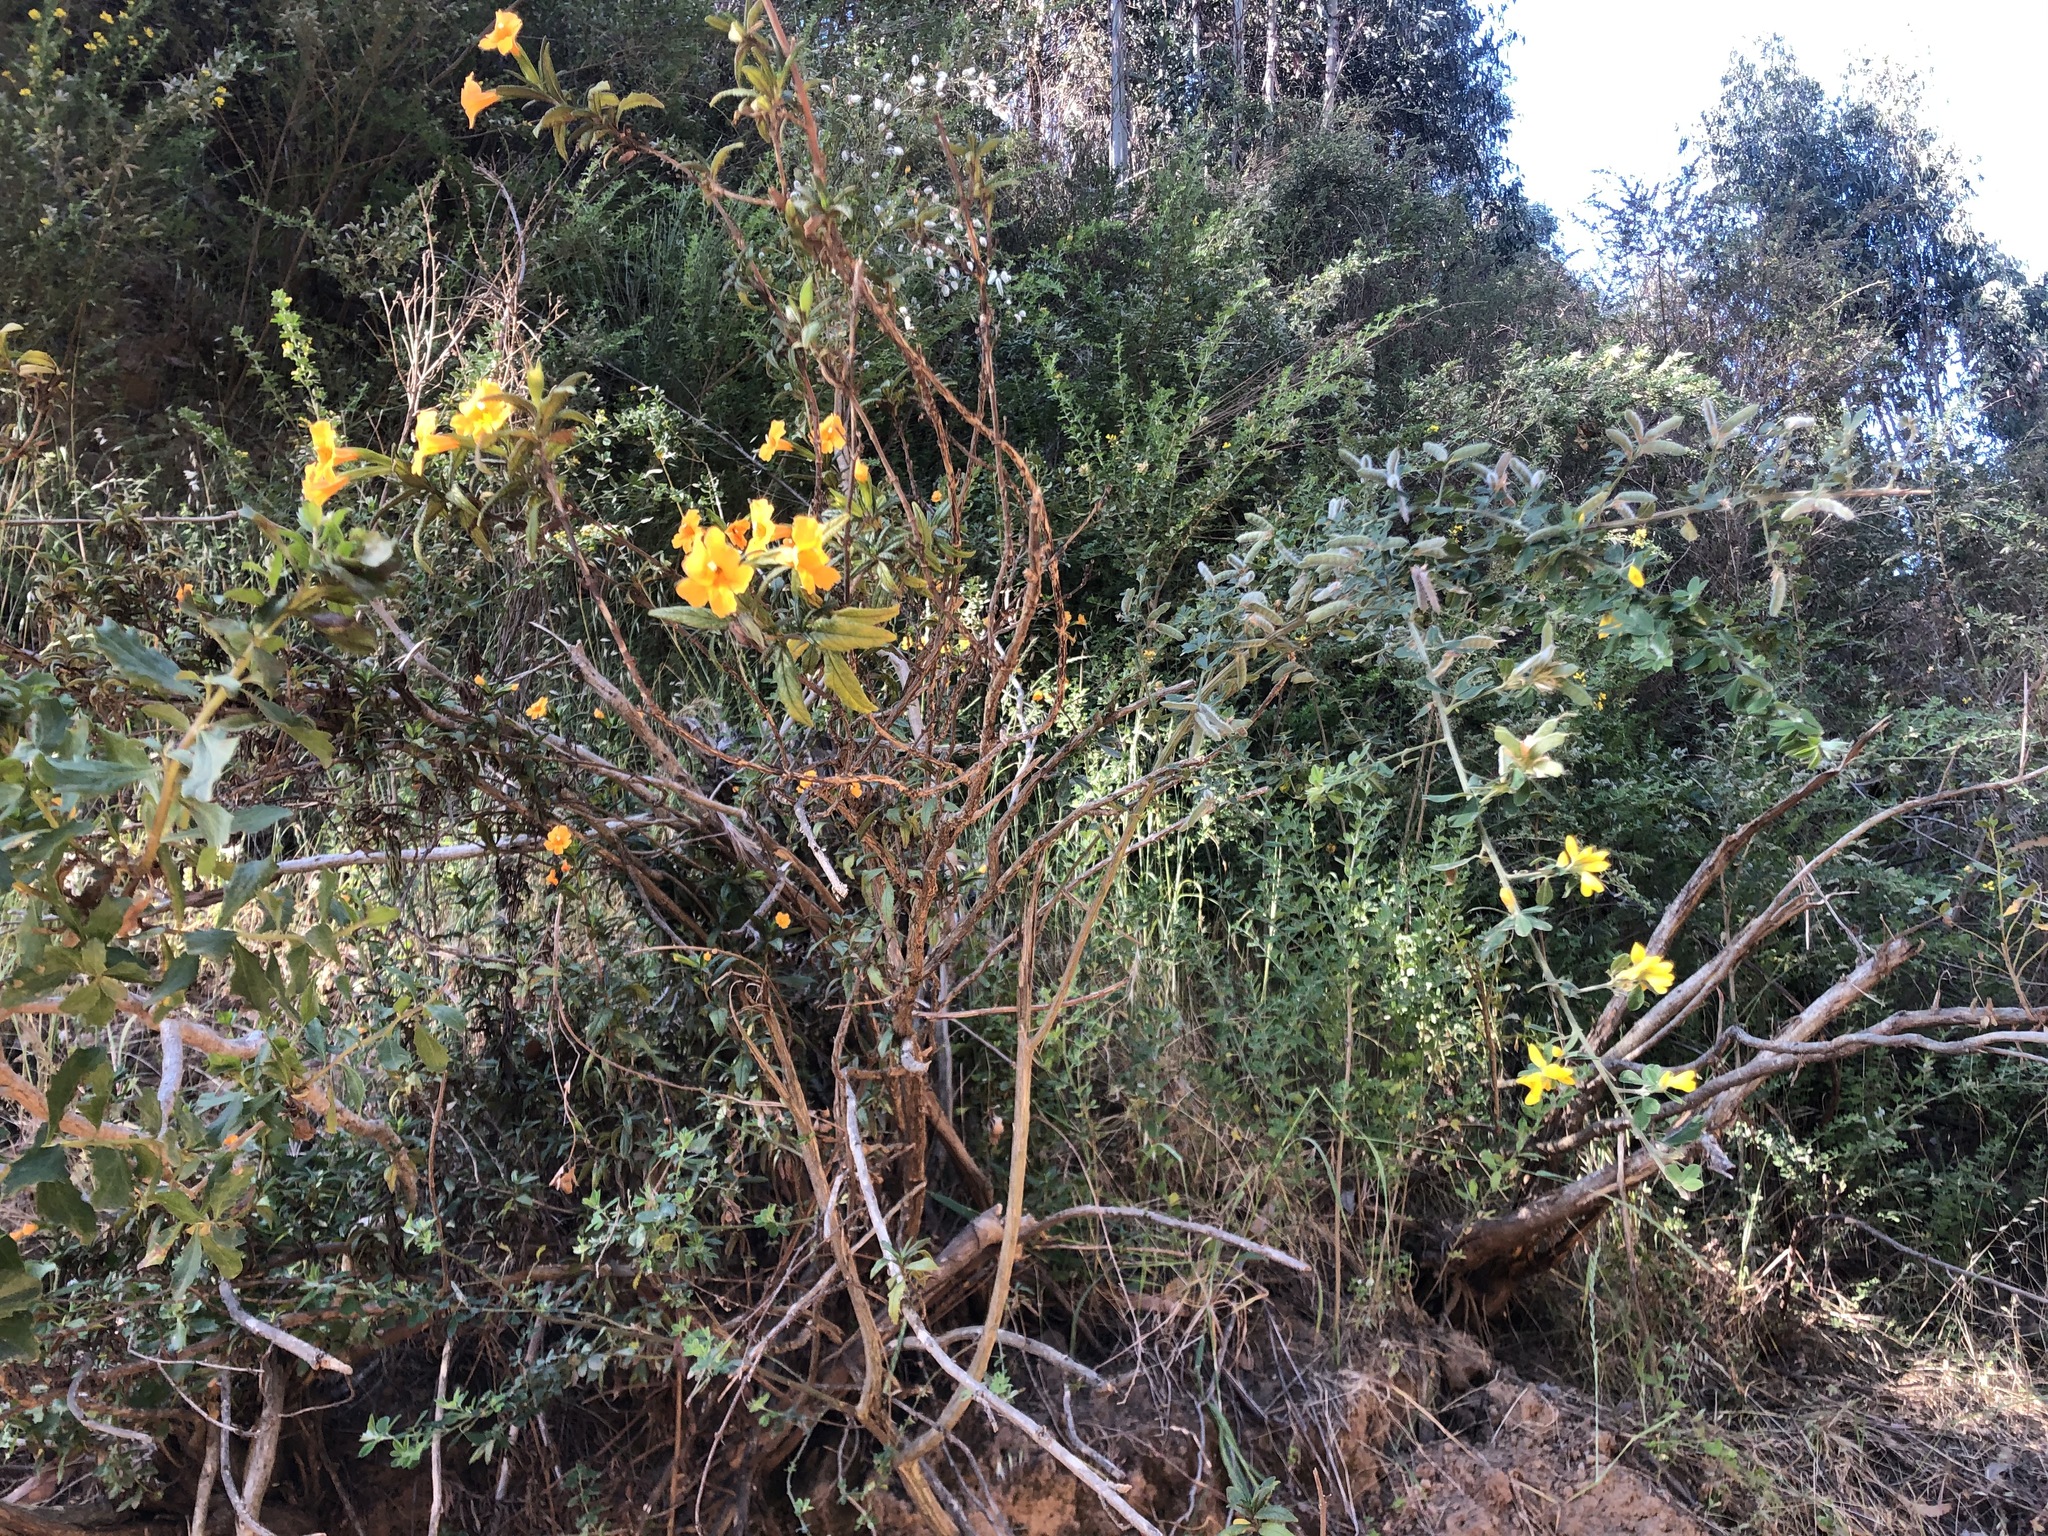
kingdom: Plantae
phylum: Tracheophyta
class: Magnoliopsida
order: Lamiales
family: Phrymaceae
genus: Diplacus
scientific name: Diplacus aurantiacus
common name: Bush monkey-flower
